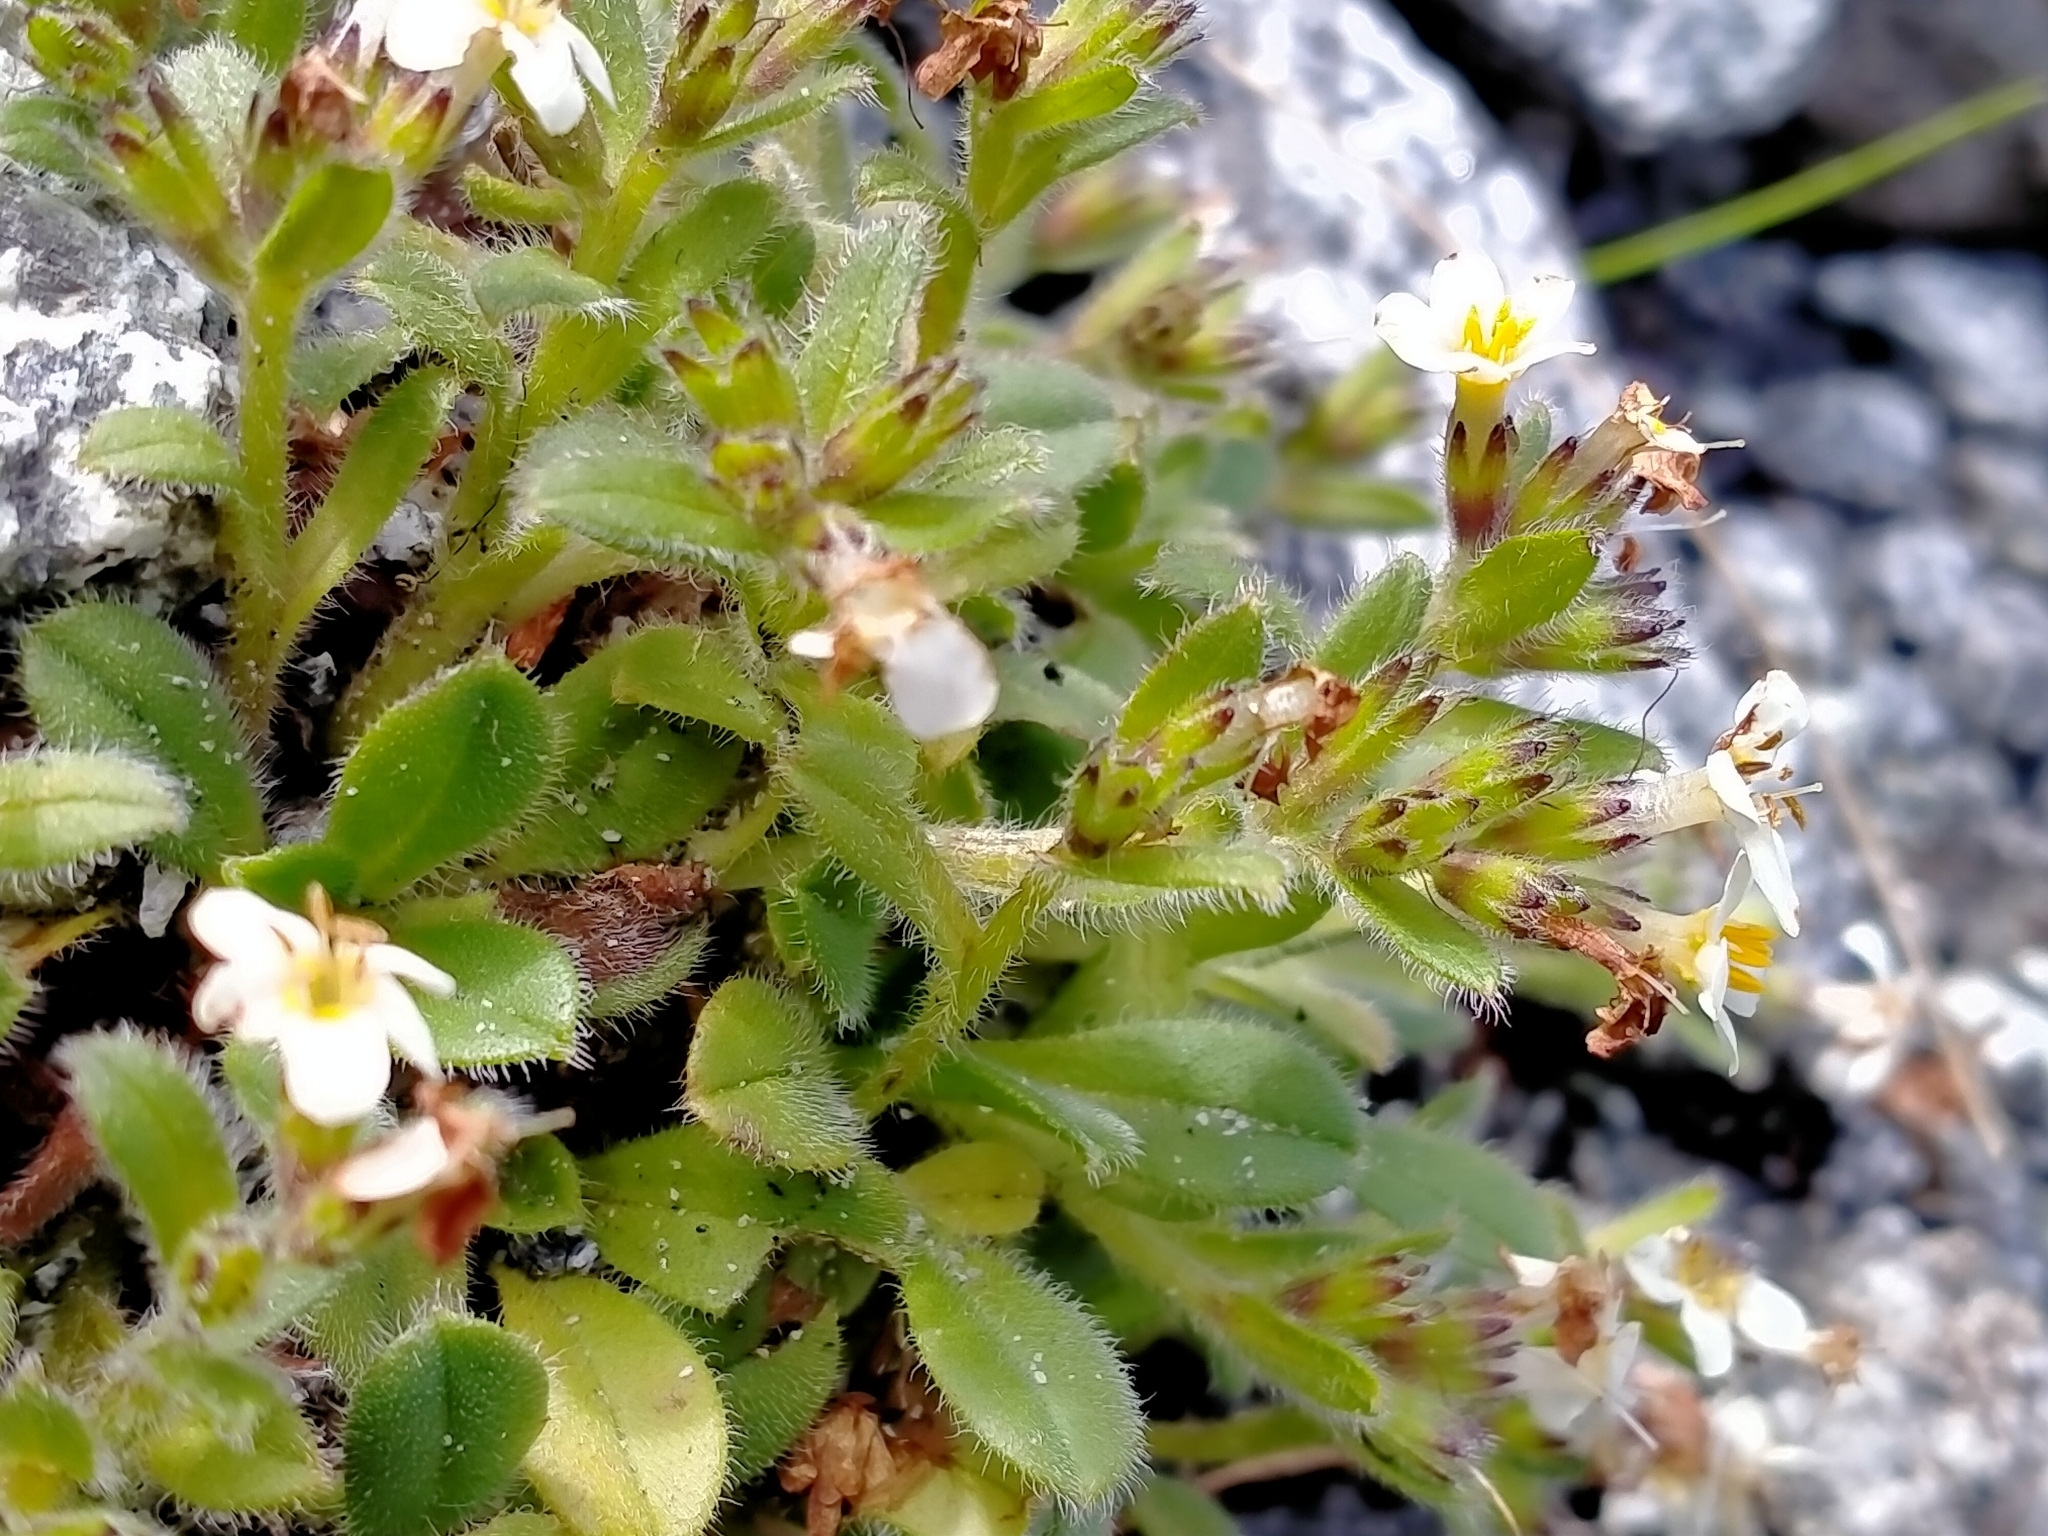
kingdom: Plantae
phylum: Tracheophyta
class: Magnoliopsida
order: Boraginales
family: Boraginaceae
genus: Myosotis
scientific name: Myosotis lyallii
